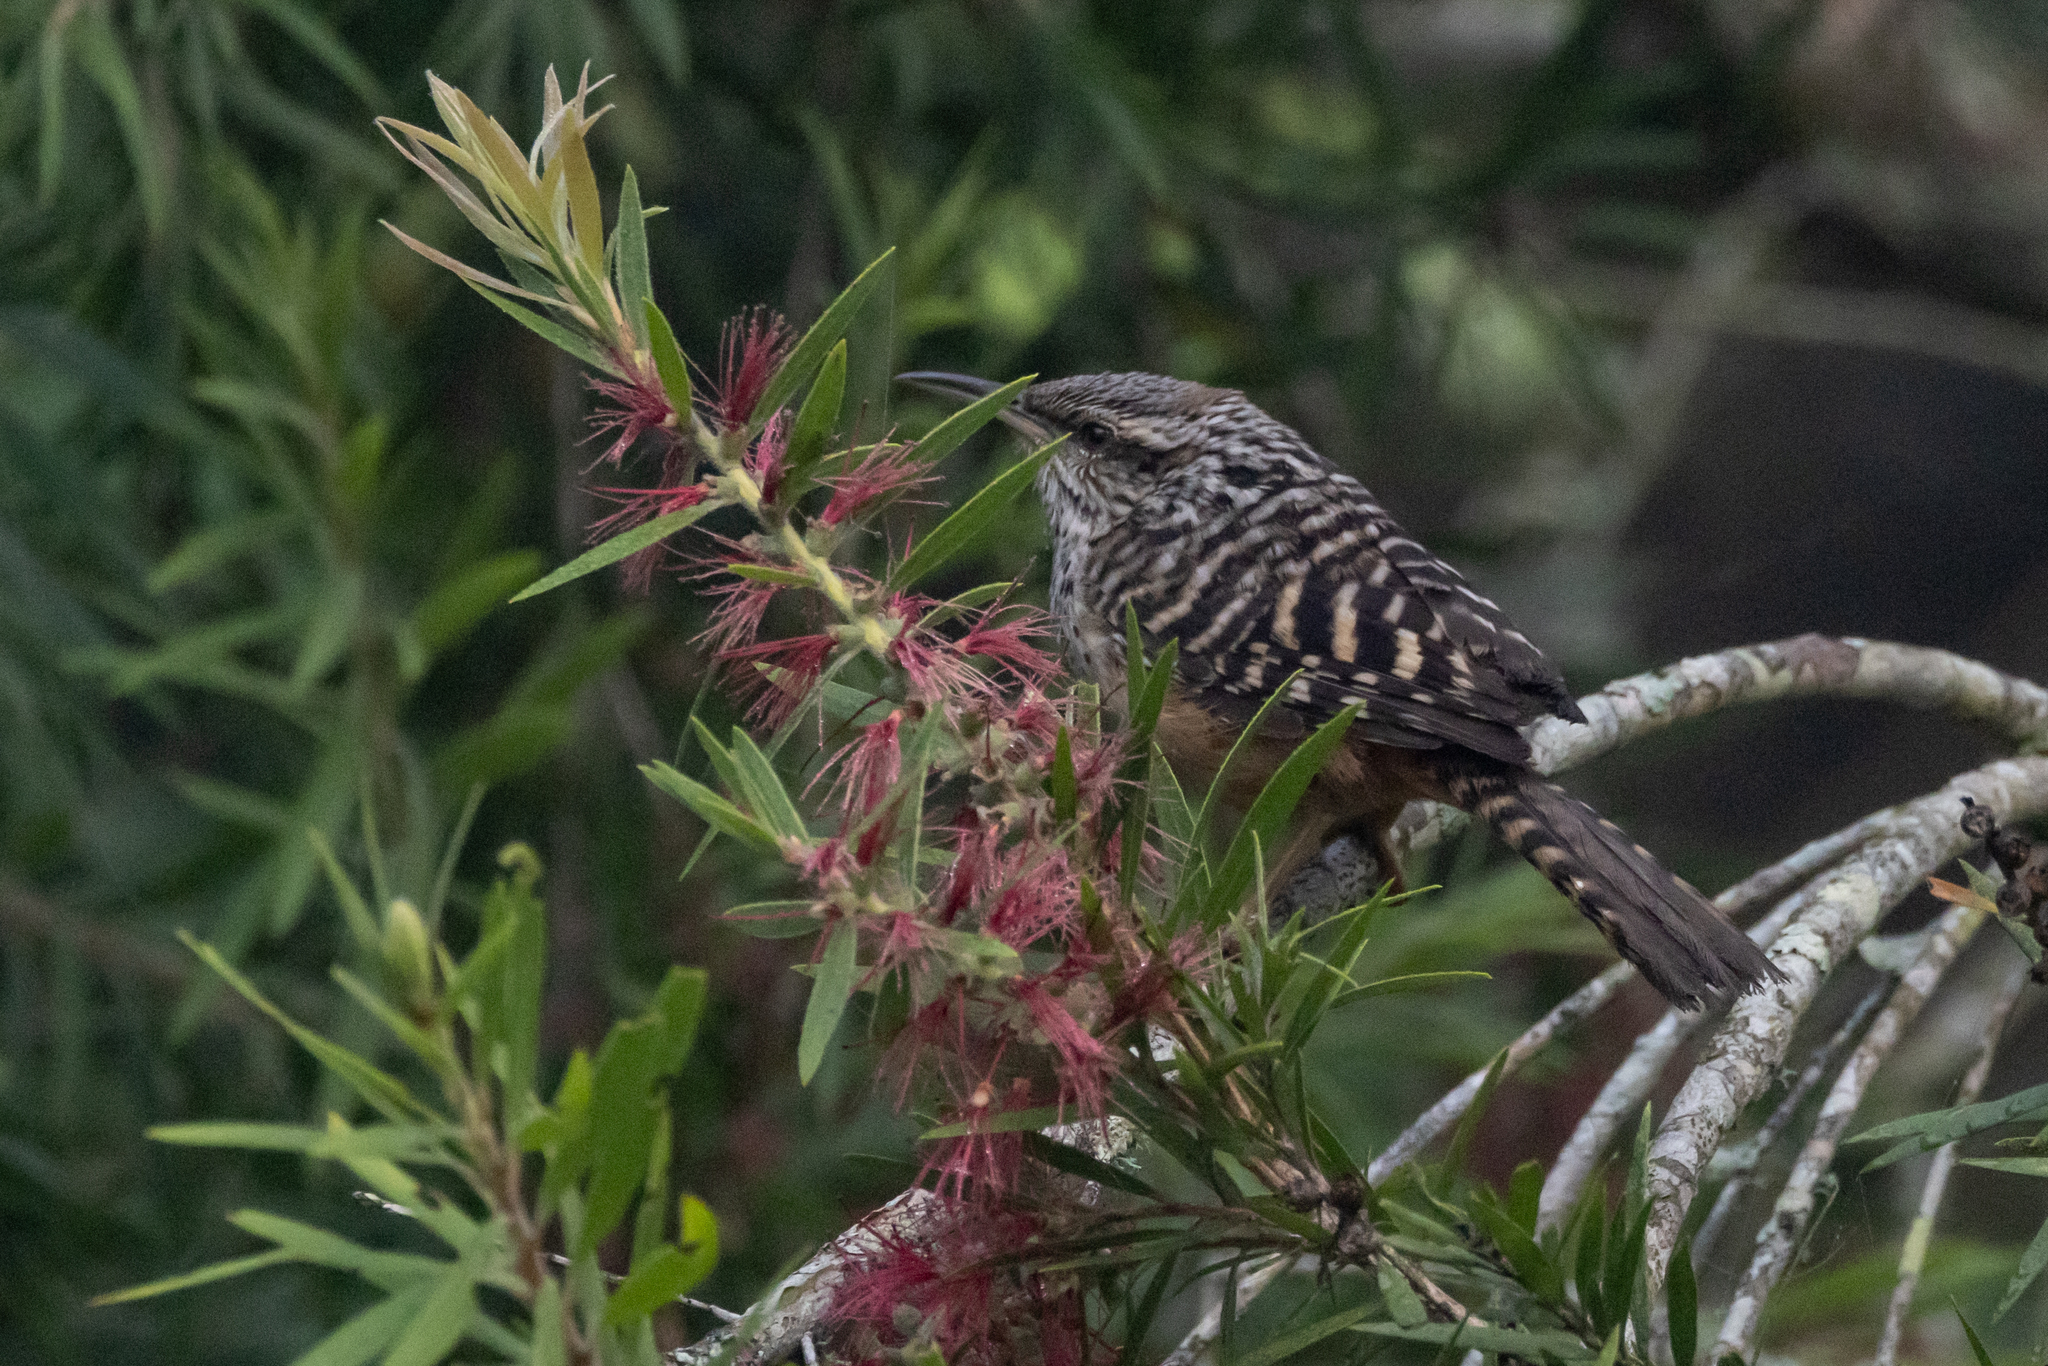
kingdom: Animalia
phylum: Chordata
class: Aves
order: Passeriformes
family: Troglodytidae
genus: Campylorhynchus
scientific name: Campylorhynchus zonatus
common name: Band-backed wren
